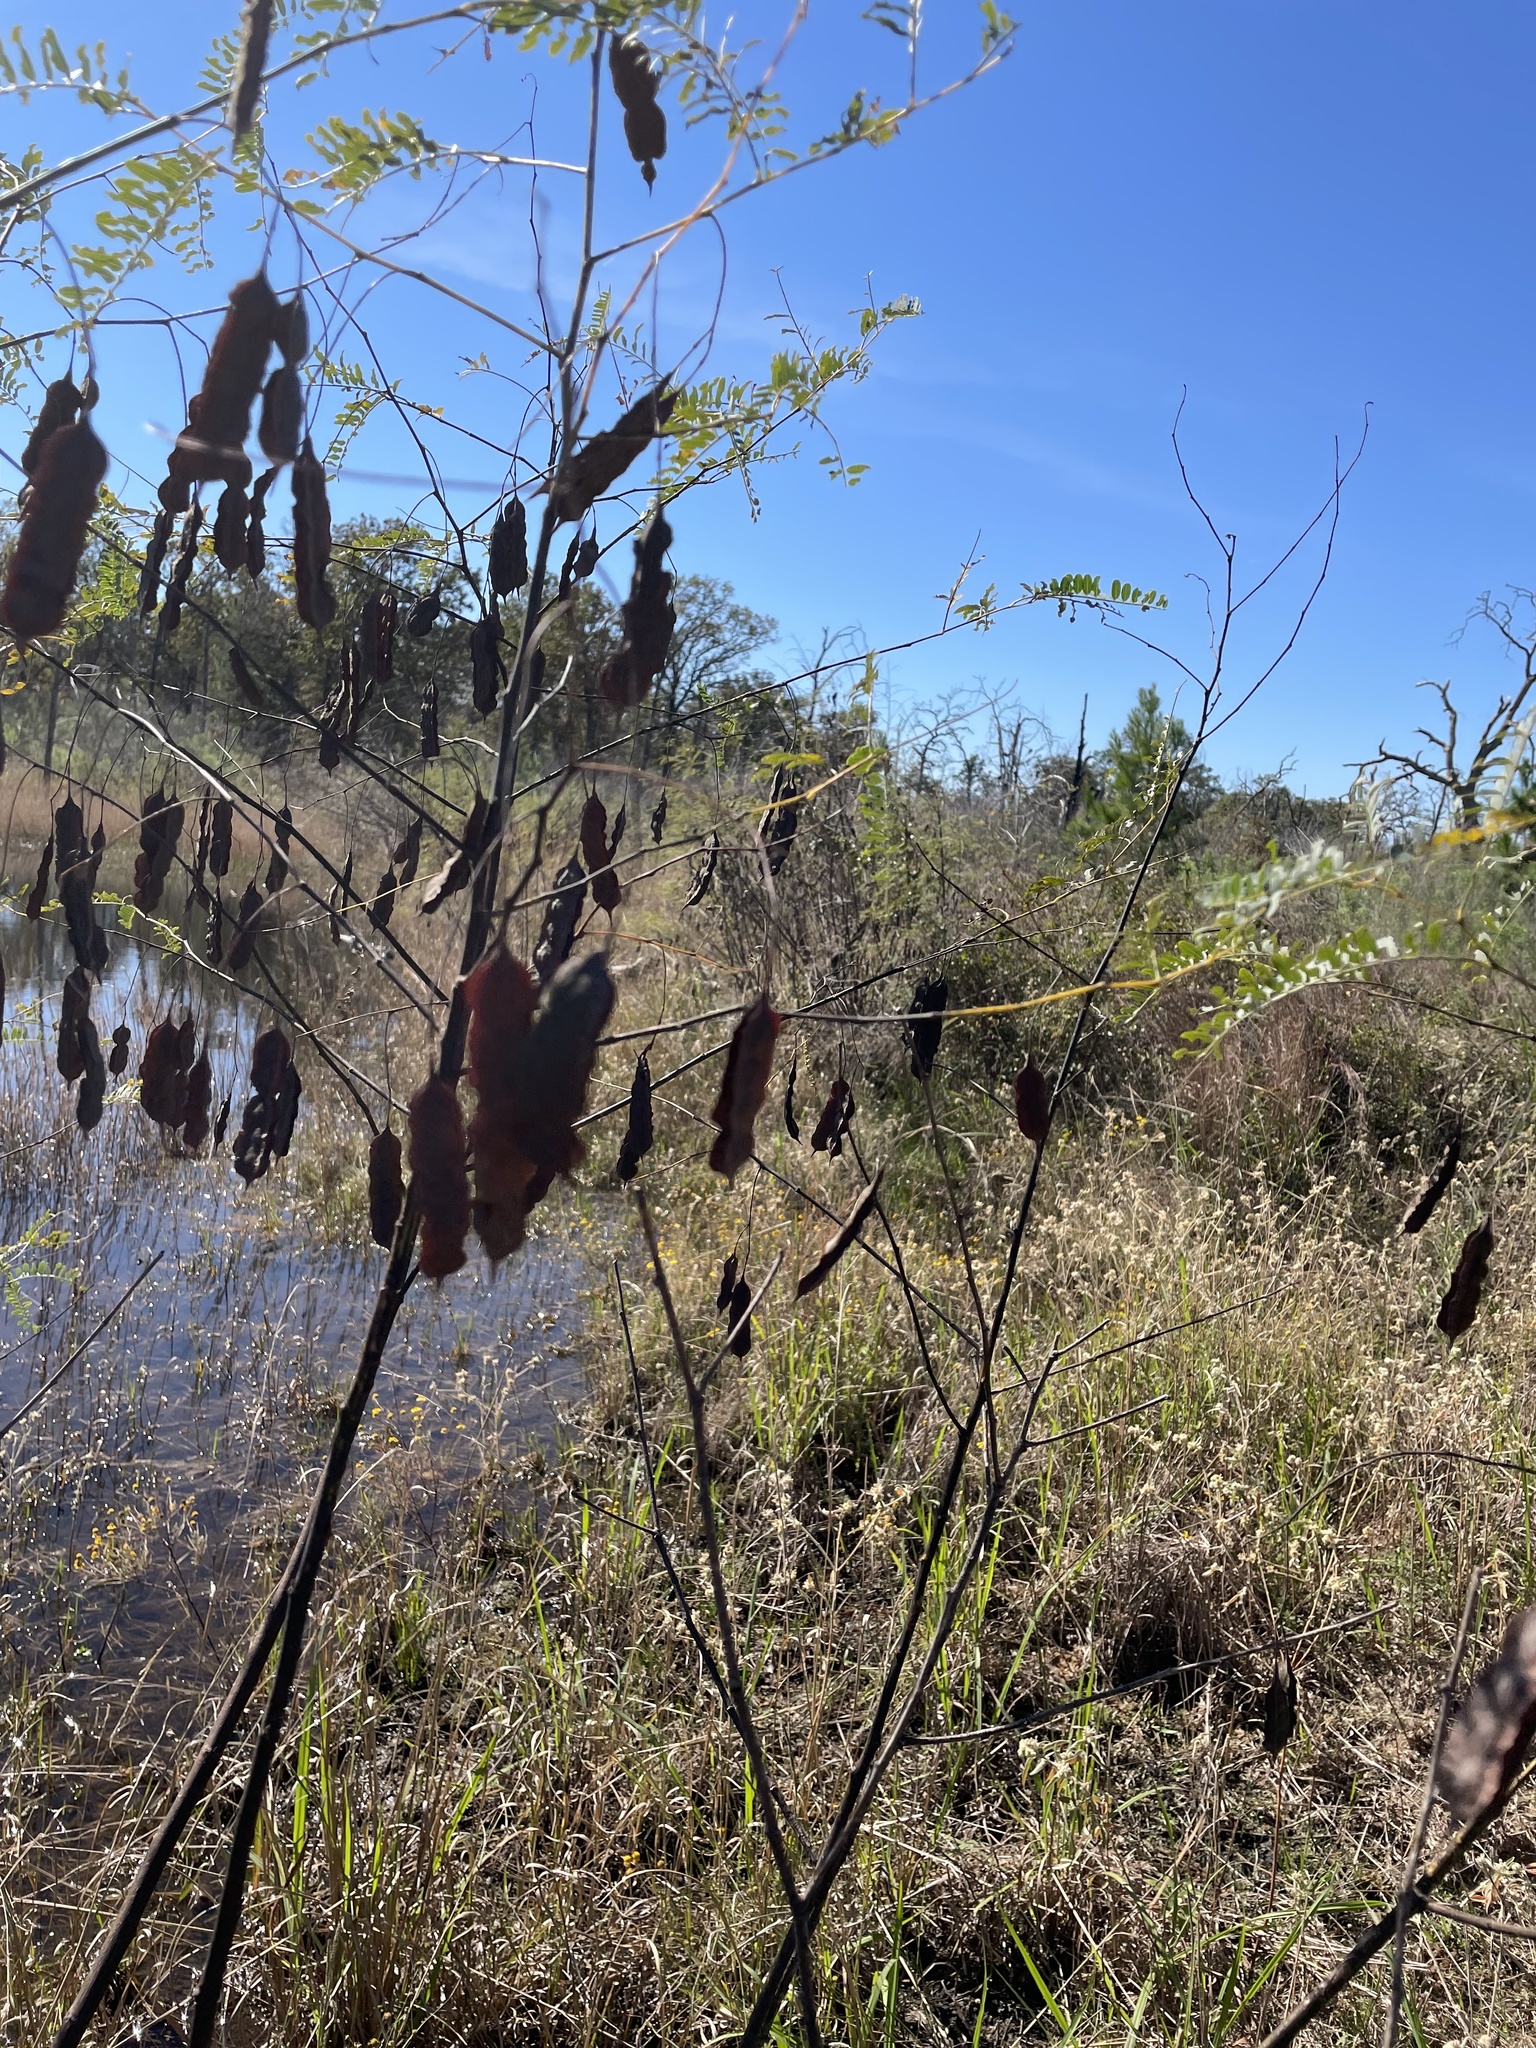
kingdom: Plantae
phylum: Tracheophyta
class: Magnoliopsida
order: Fabales
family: Fabaceae
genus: Sesbania
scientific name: Sesbania drummondii
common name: Poison-bean
